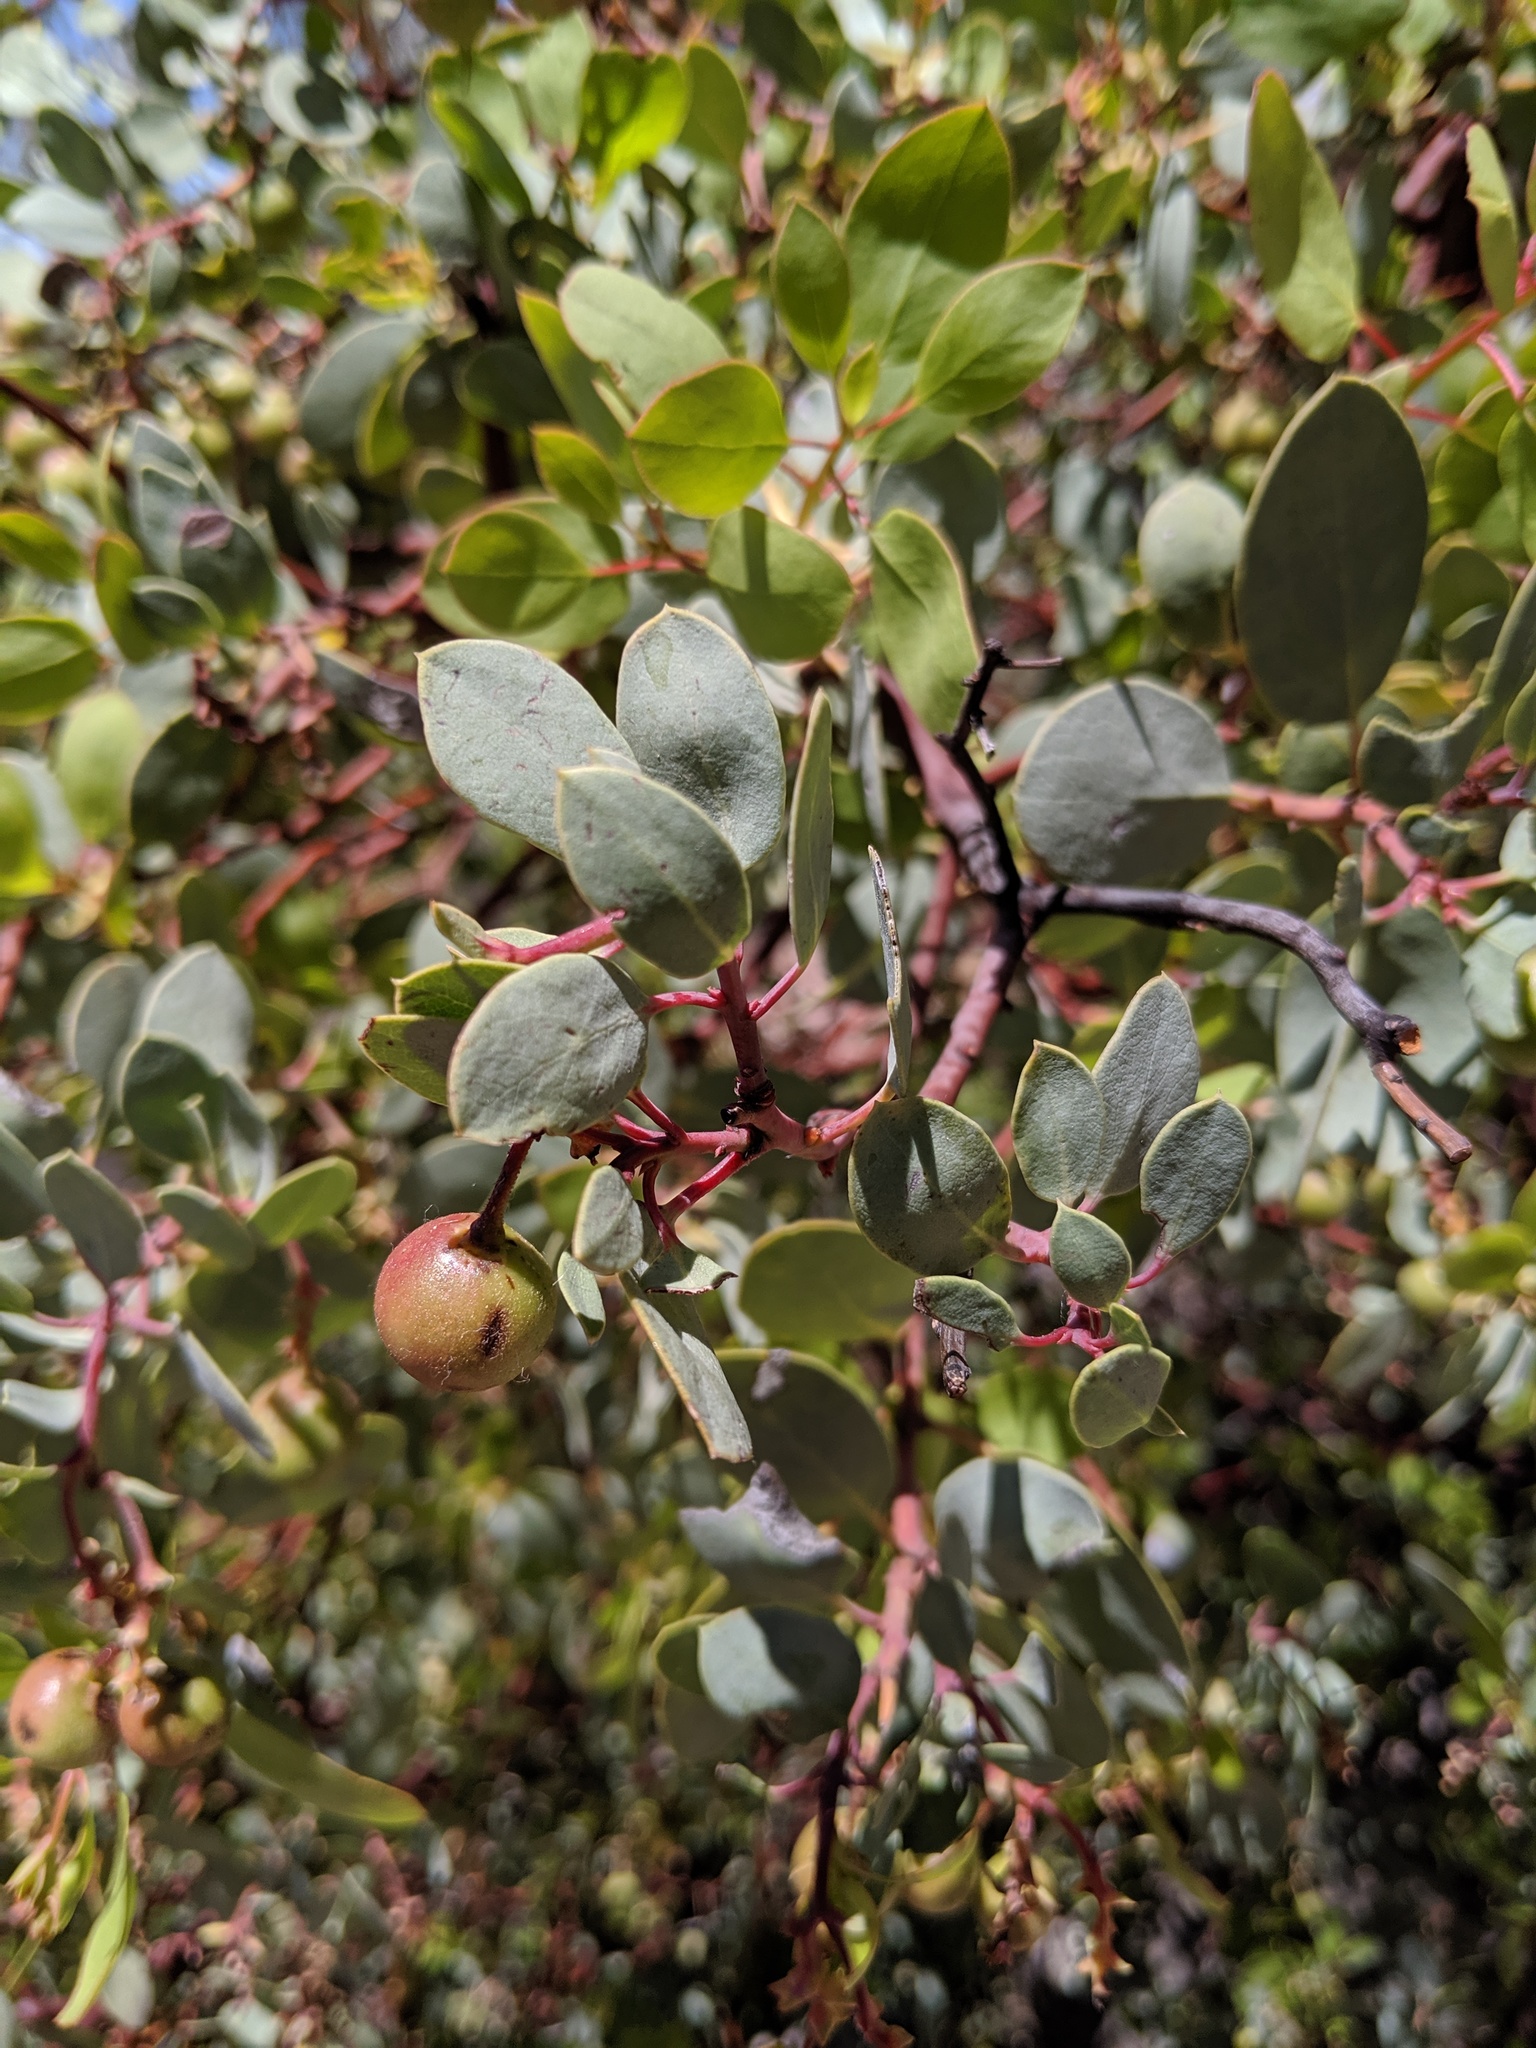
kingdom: Plantae
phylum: Tracheophyta
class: Magnoliopsida
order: Ericales
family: Ericaceae
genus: Arctostaphylos
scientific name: Arctostaphylos glauca
